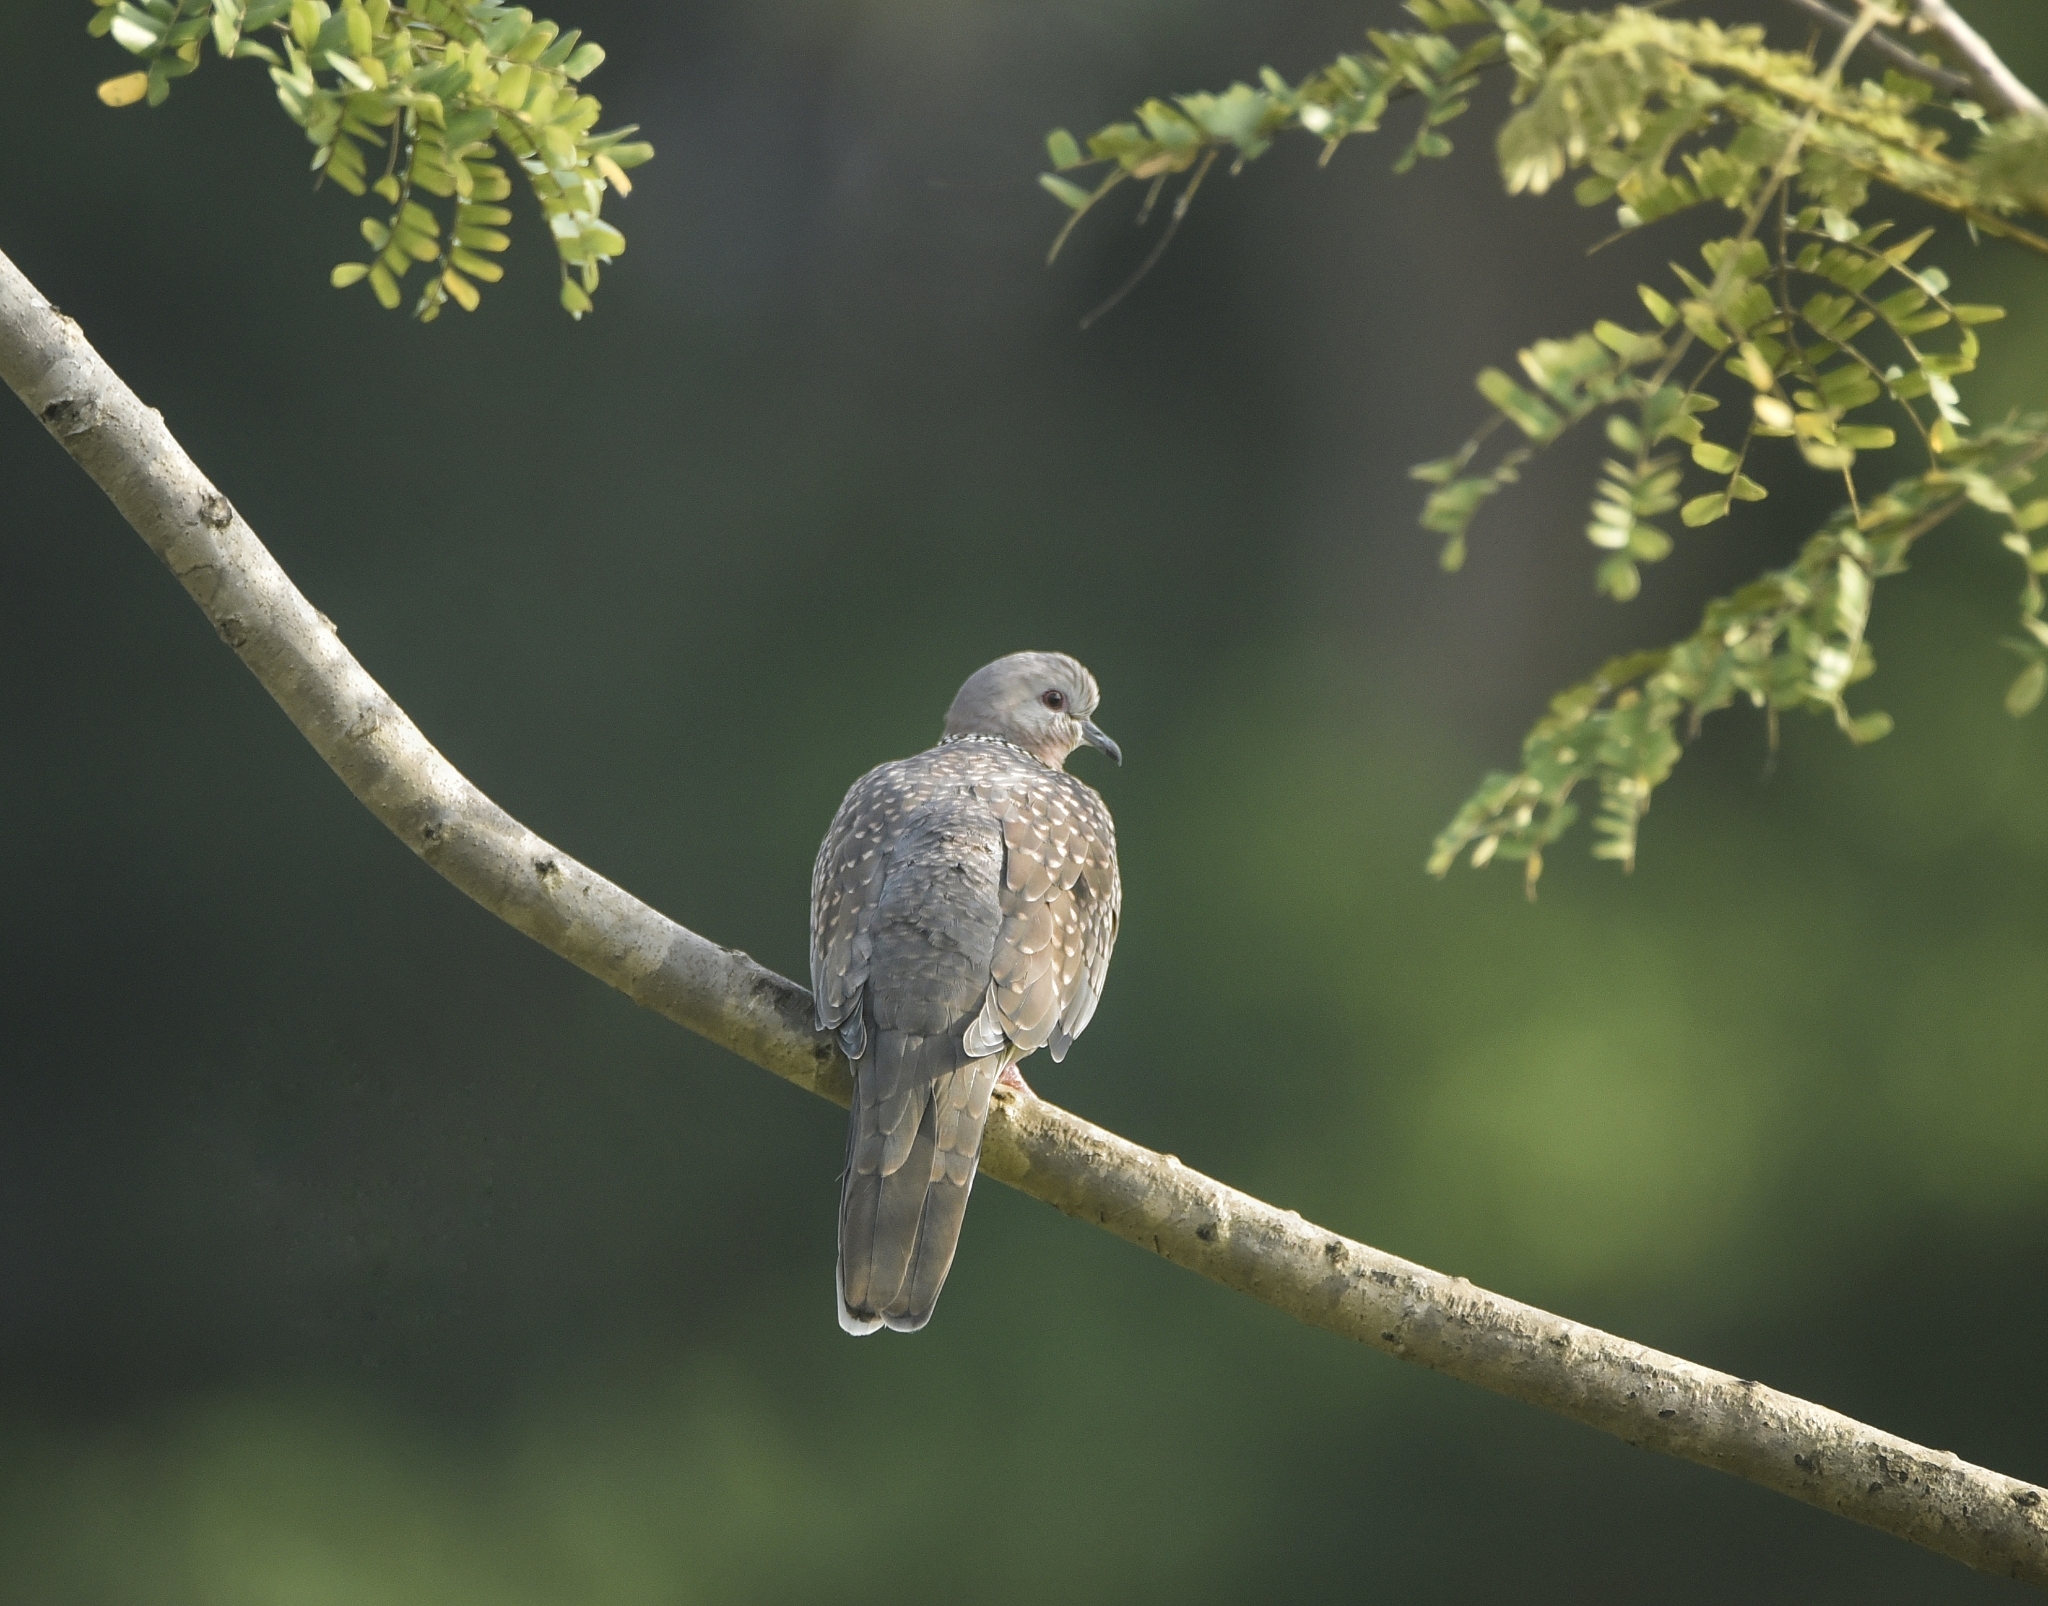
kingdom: Animalia
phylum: Chordata
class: Aves
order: Columbiformes
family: Columbidae
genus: Spilopelia
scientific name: Spilopelia chinensis
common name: Spotted dove
